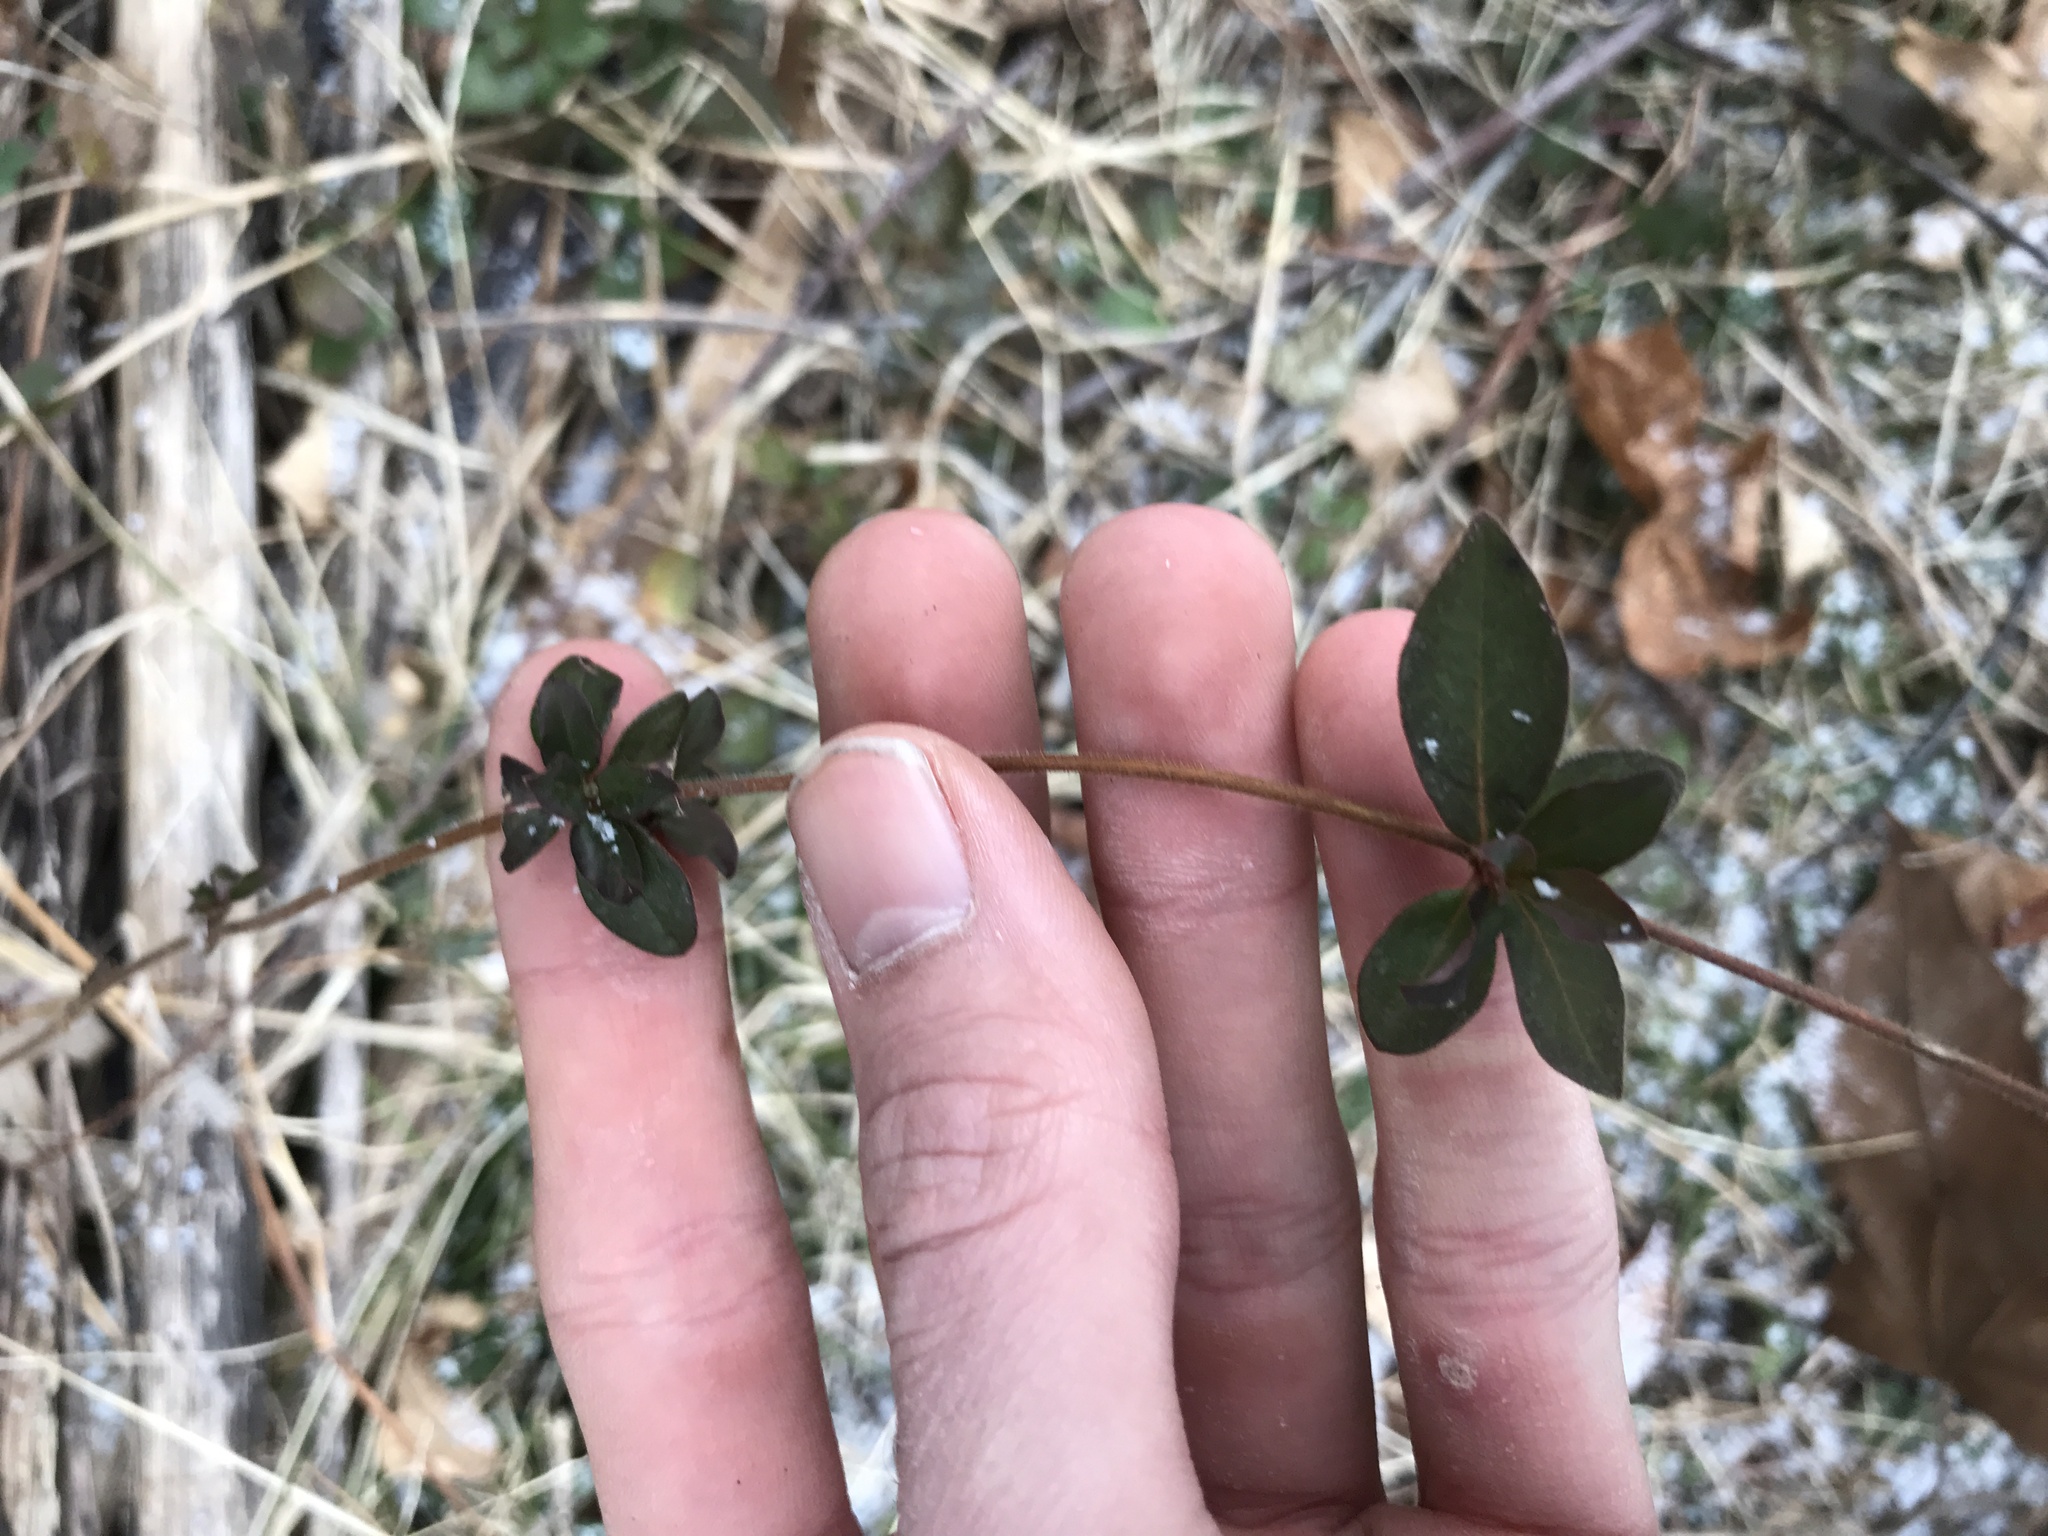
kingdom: Plantae
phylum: Tracheophyta
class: Magnoliopsida
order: Dipsacales
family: Caprifoliaceae
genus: Lonicera
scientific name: Lonicera japonica
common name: Japanese honeysuckle
